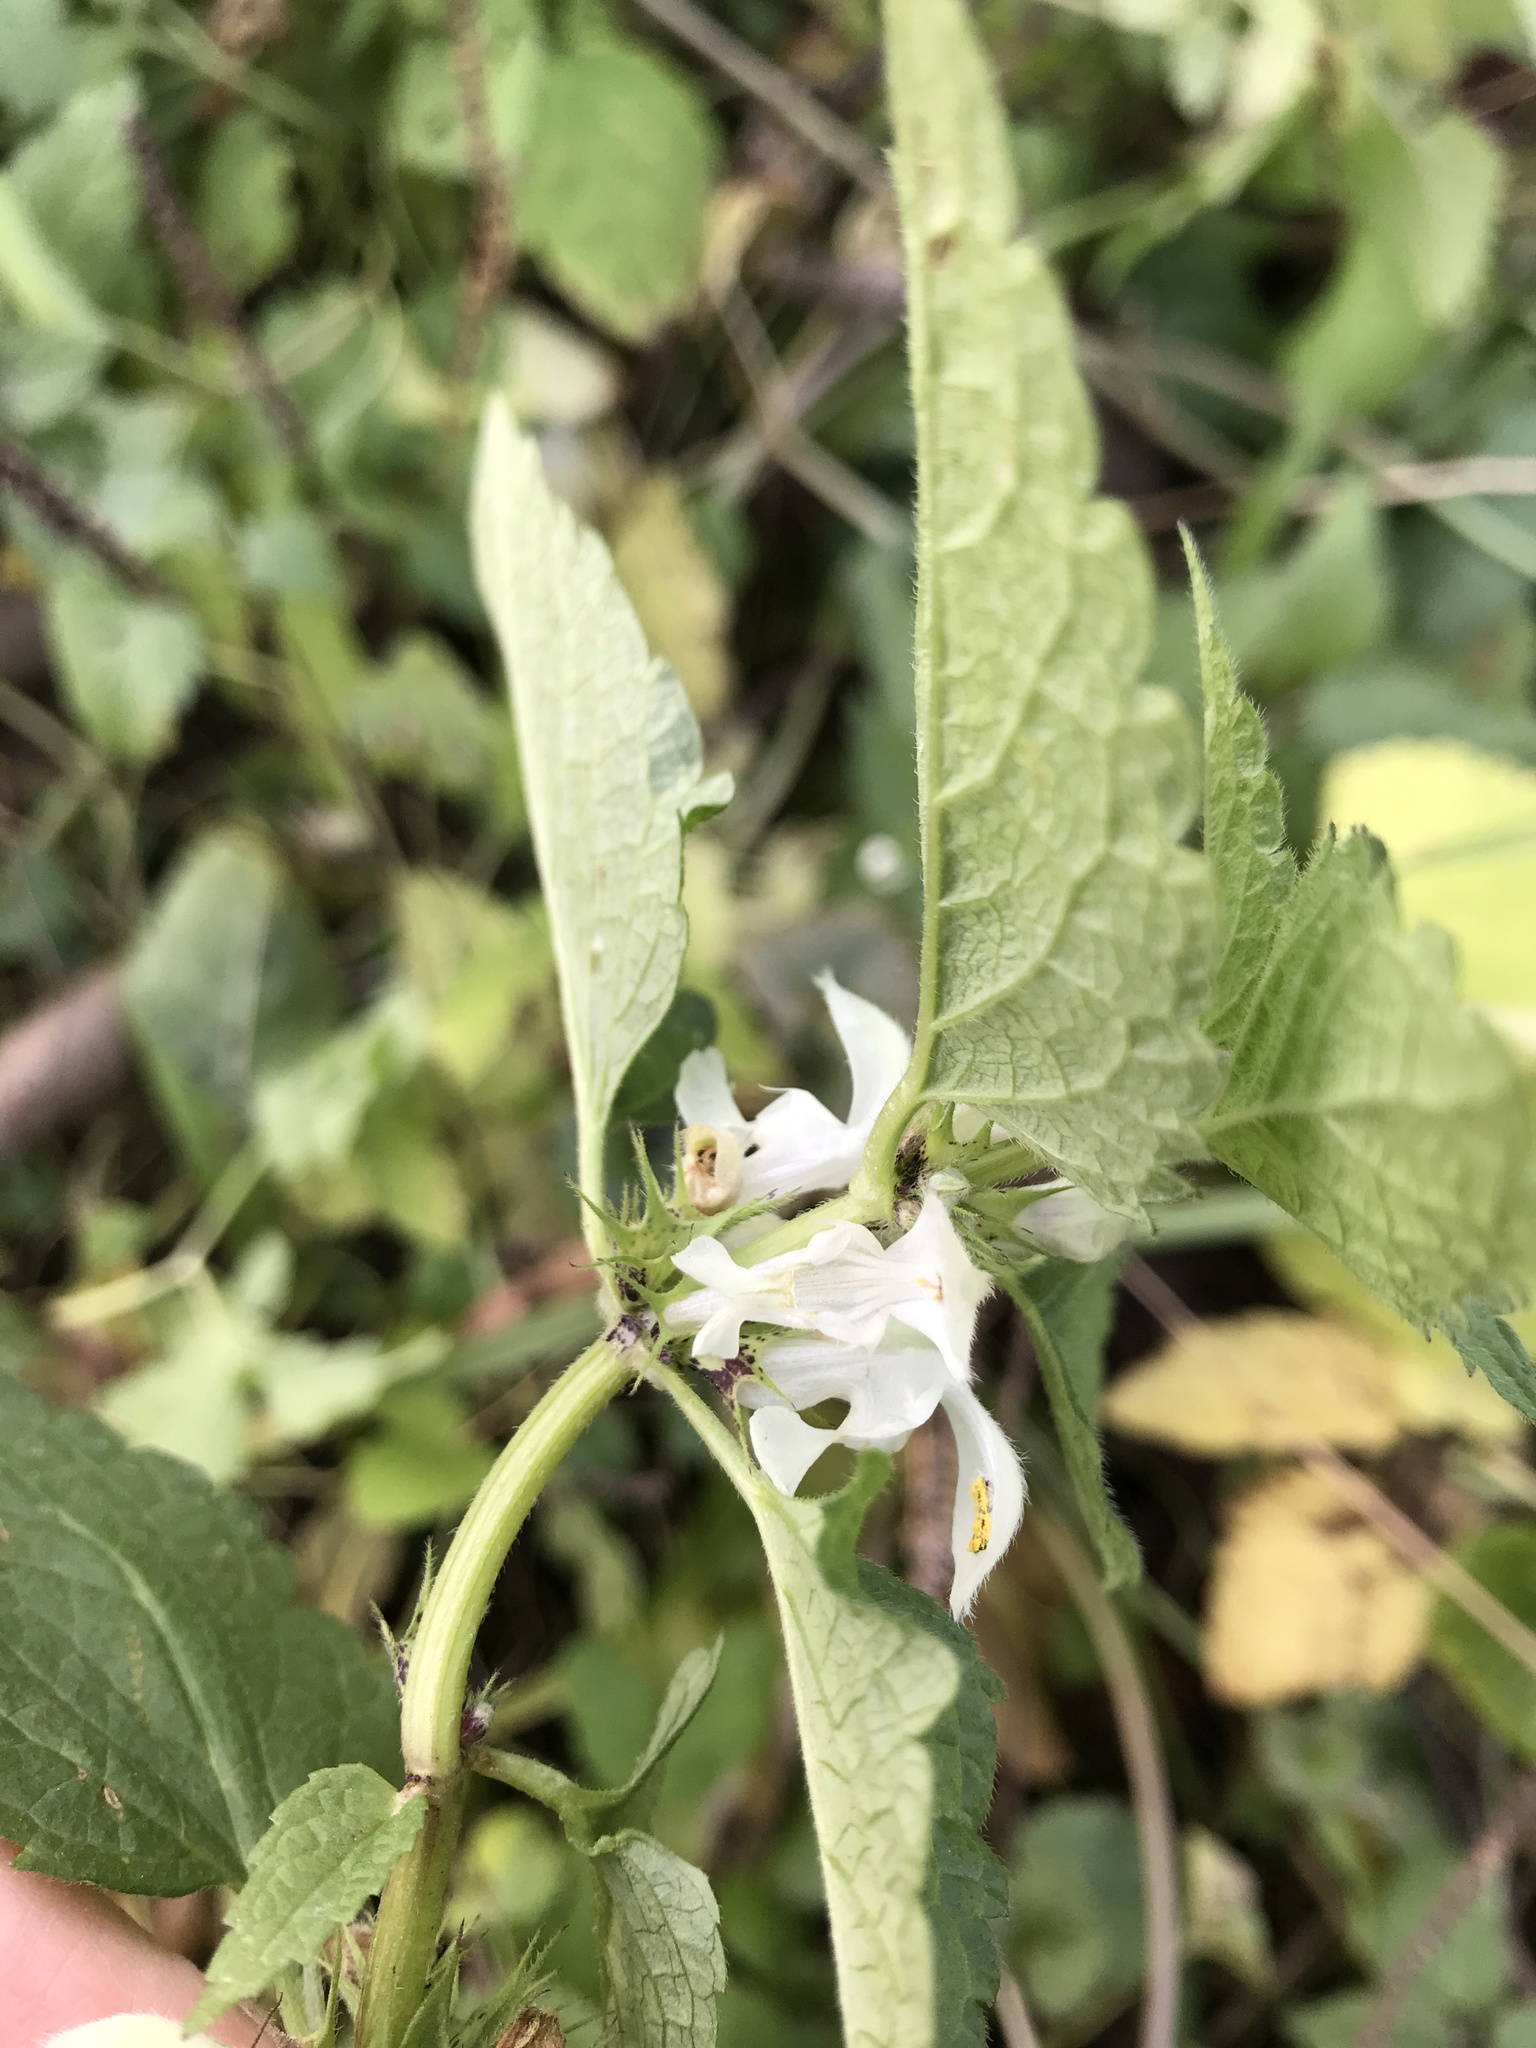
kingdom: Plantae
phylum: Tracheophyta
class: Magnoliopsida
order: Lamiales
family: Lamiaceae
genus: Lamium
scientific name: Lamium album
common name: White dead-nettle
